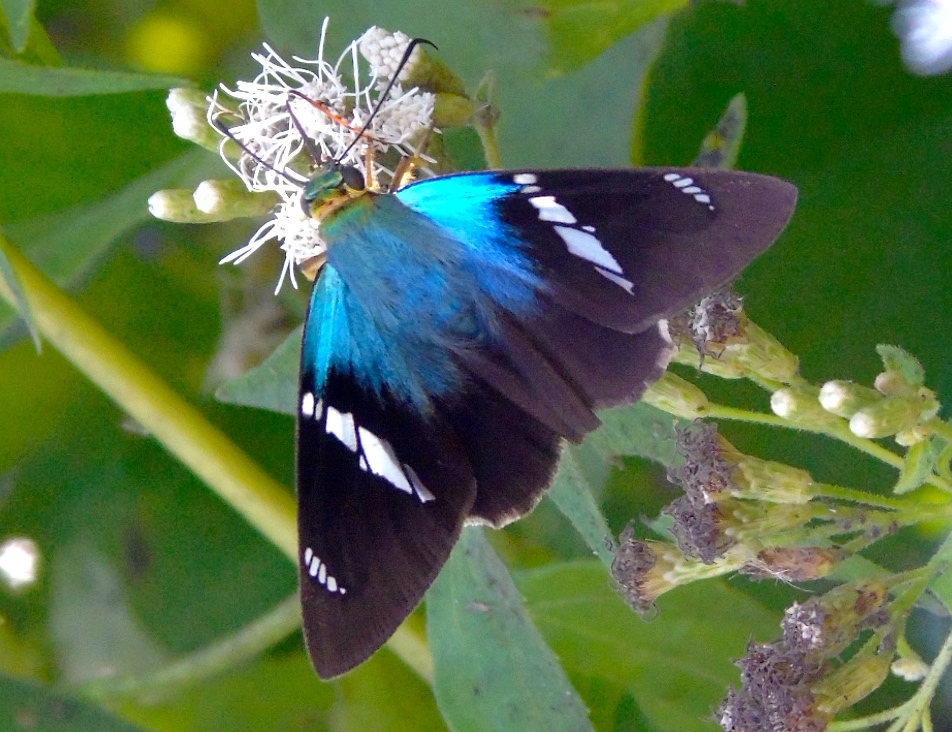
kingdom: Animalia
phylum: Arthropoda
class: Insecta
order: Lepidoptera
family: Hesperiidae
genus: Astraptes
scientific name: Astraptes fulgerator
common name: Two-barred flasher
